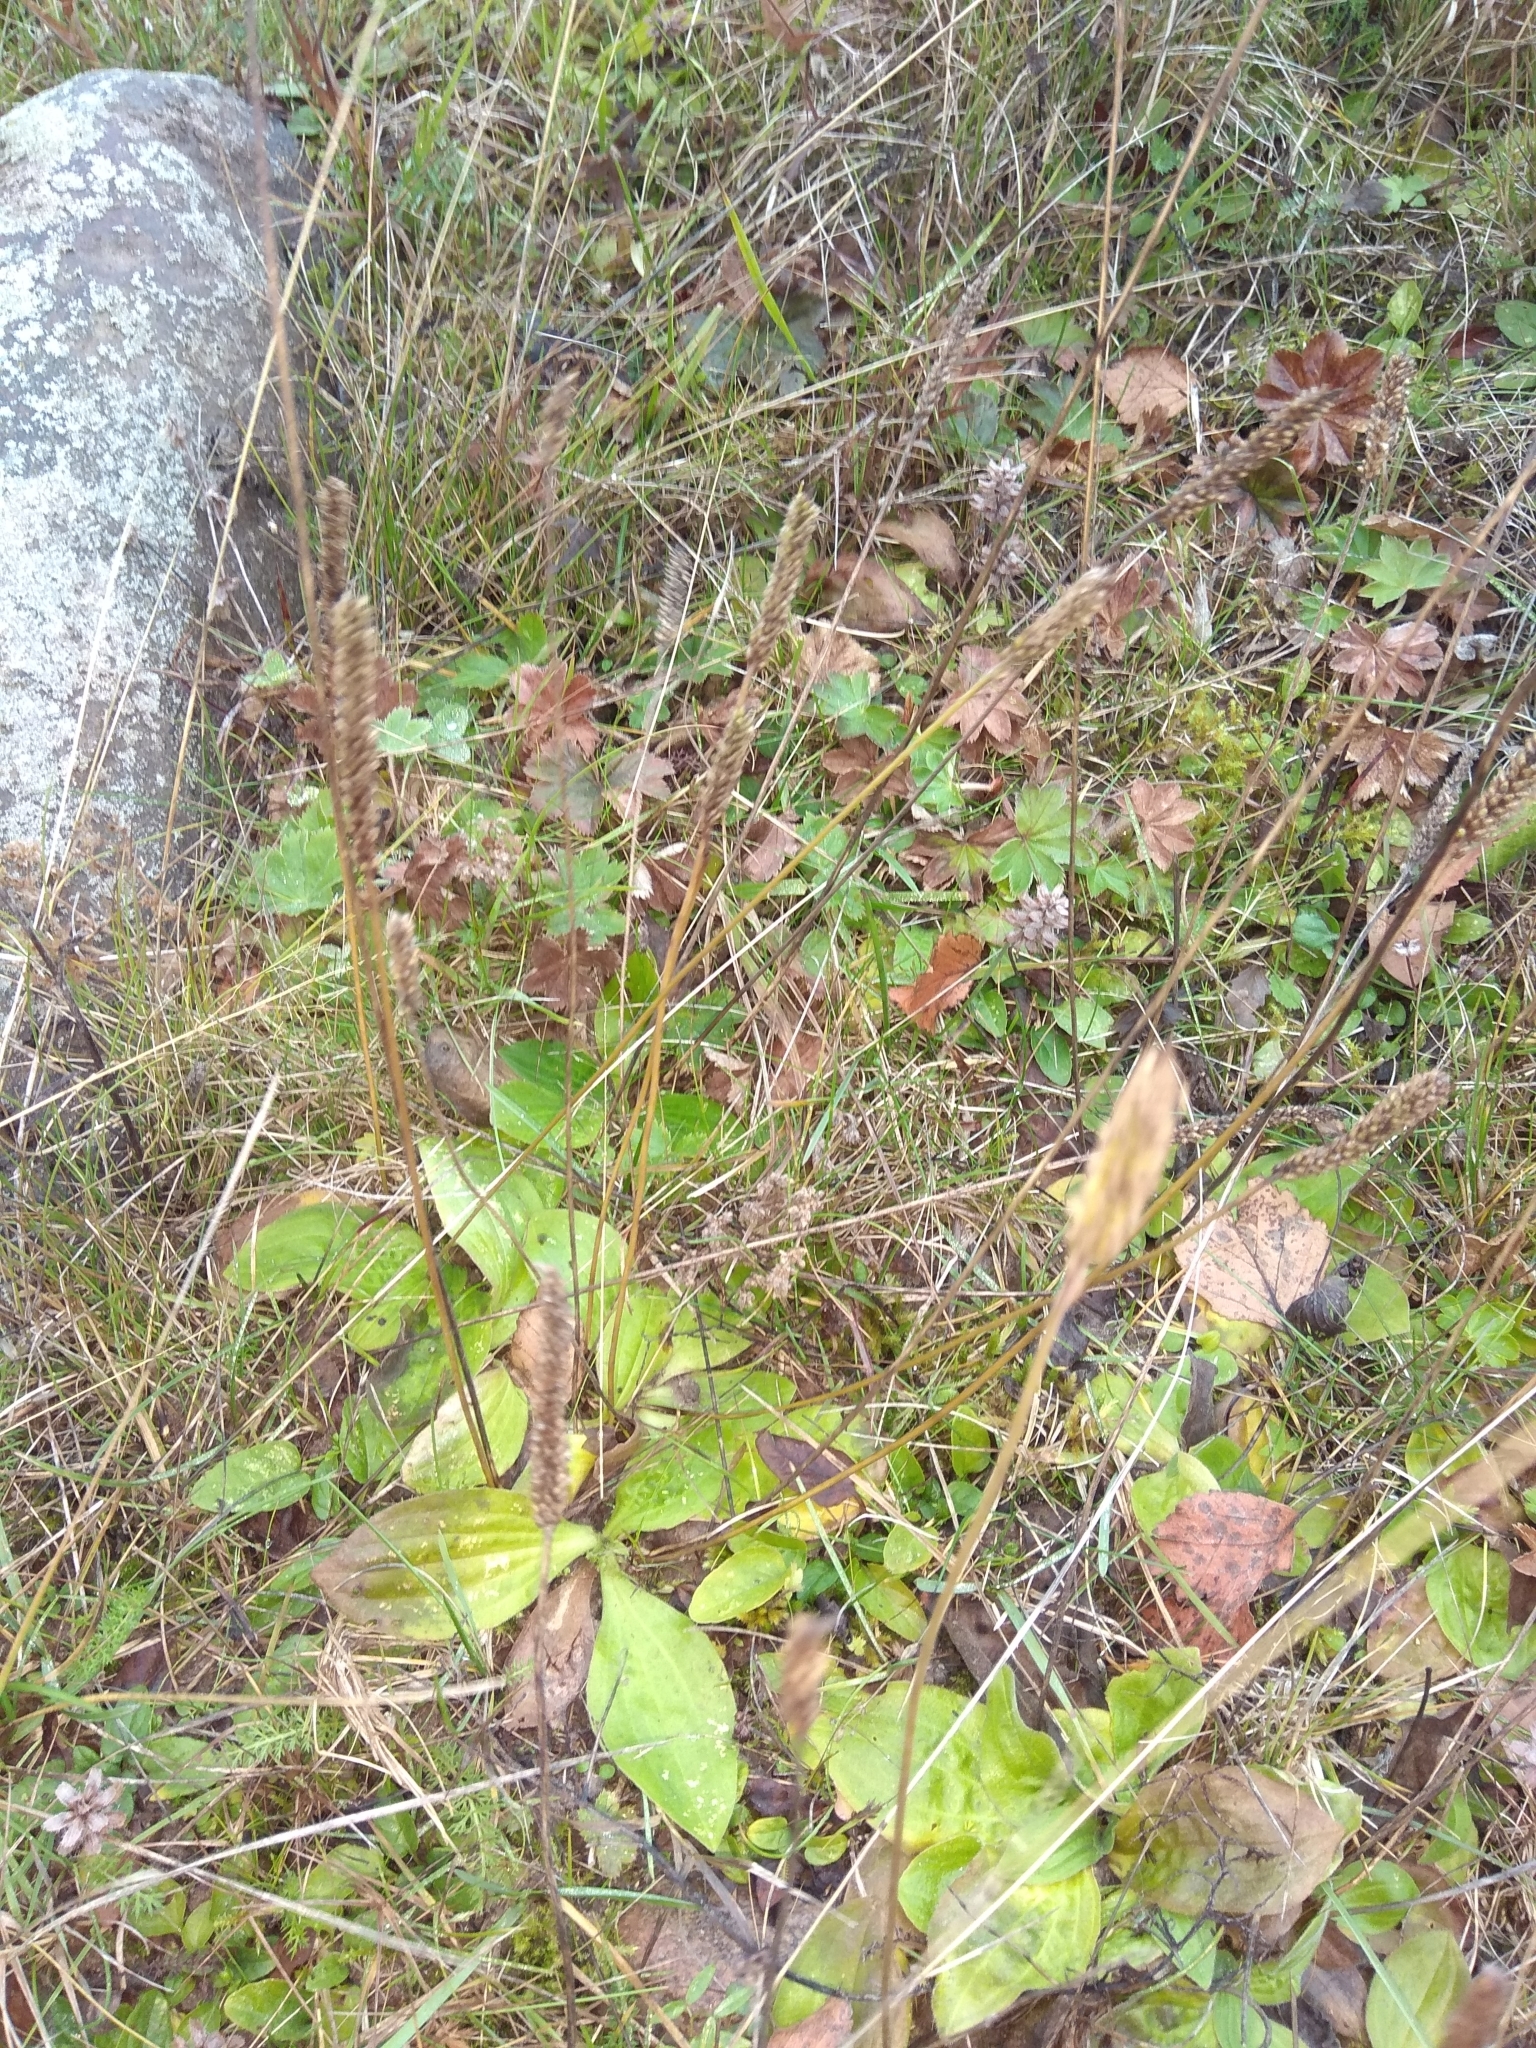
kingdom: Plantae
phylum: Tracheophyta
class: Magnoliopsida
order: Lamiales
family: Plantaginaceae
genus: Plantago
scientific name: Plantago major
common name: Common plantain
